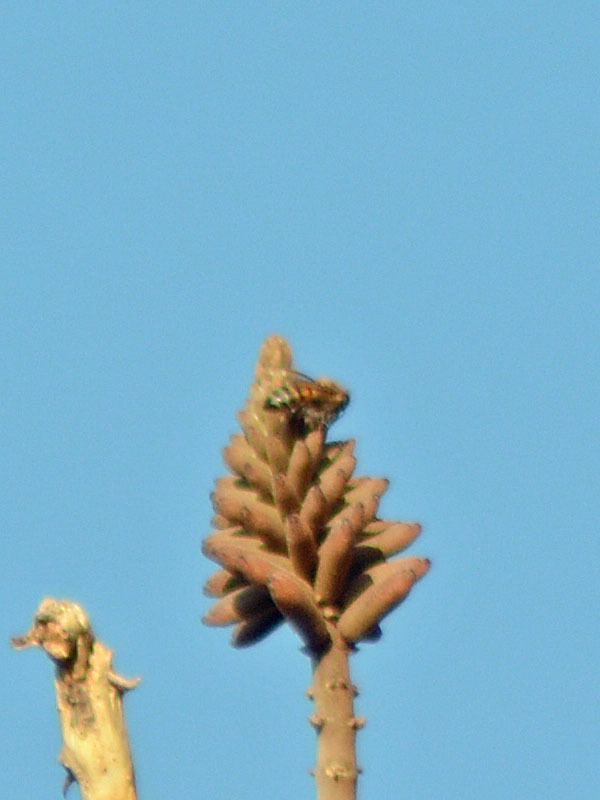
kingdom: Animalia
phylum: Arthropoda
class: Insecta
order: Hymenoptera
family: Apidae
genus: Apis
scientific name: Apis mellifera
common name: Honey bee
